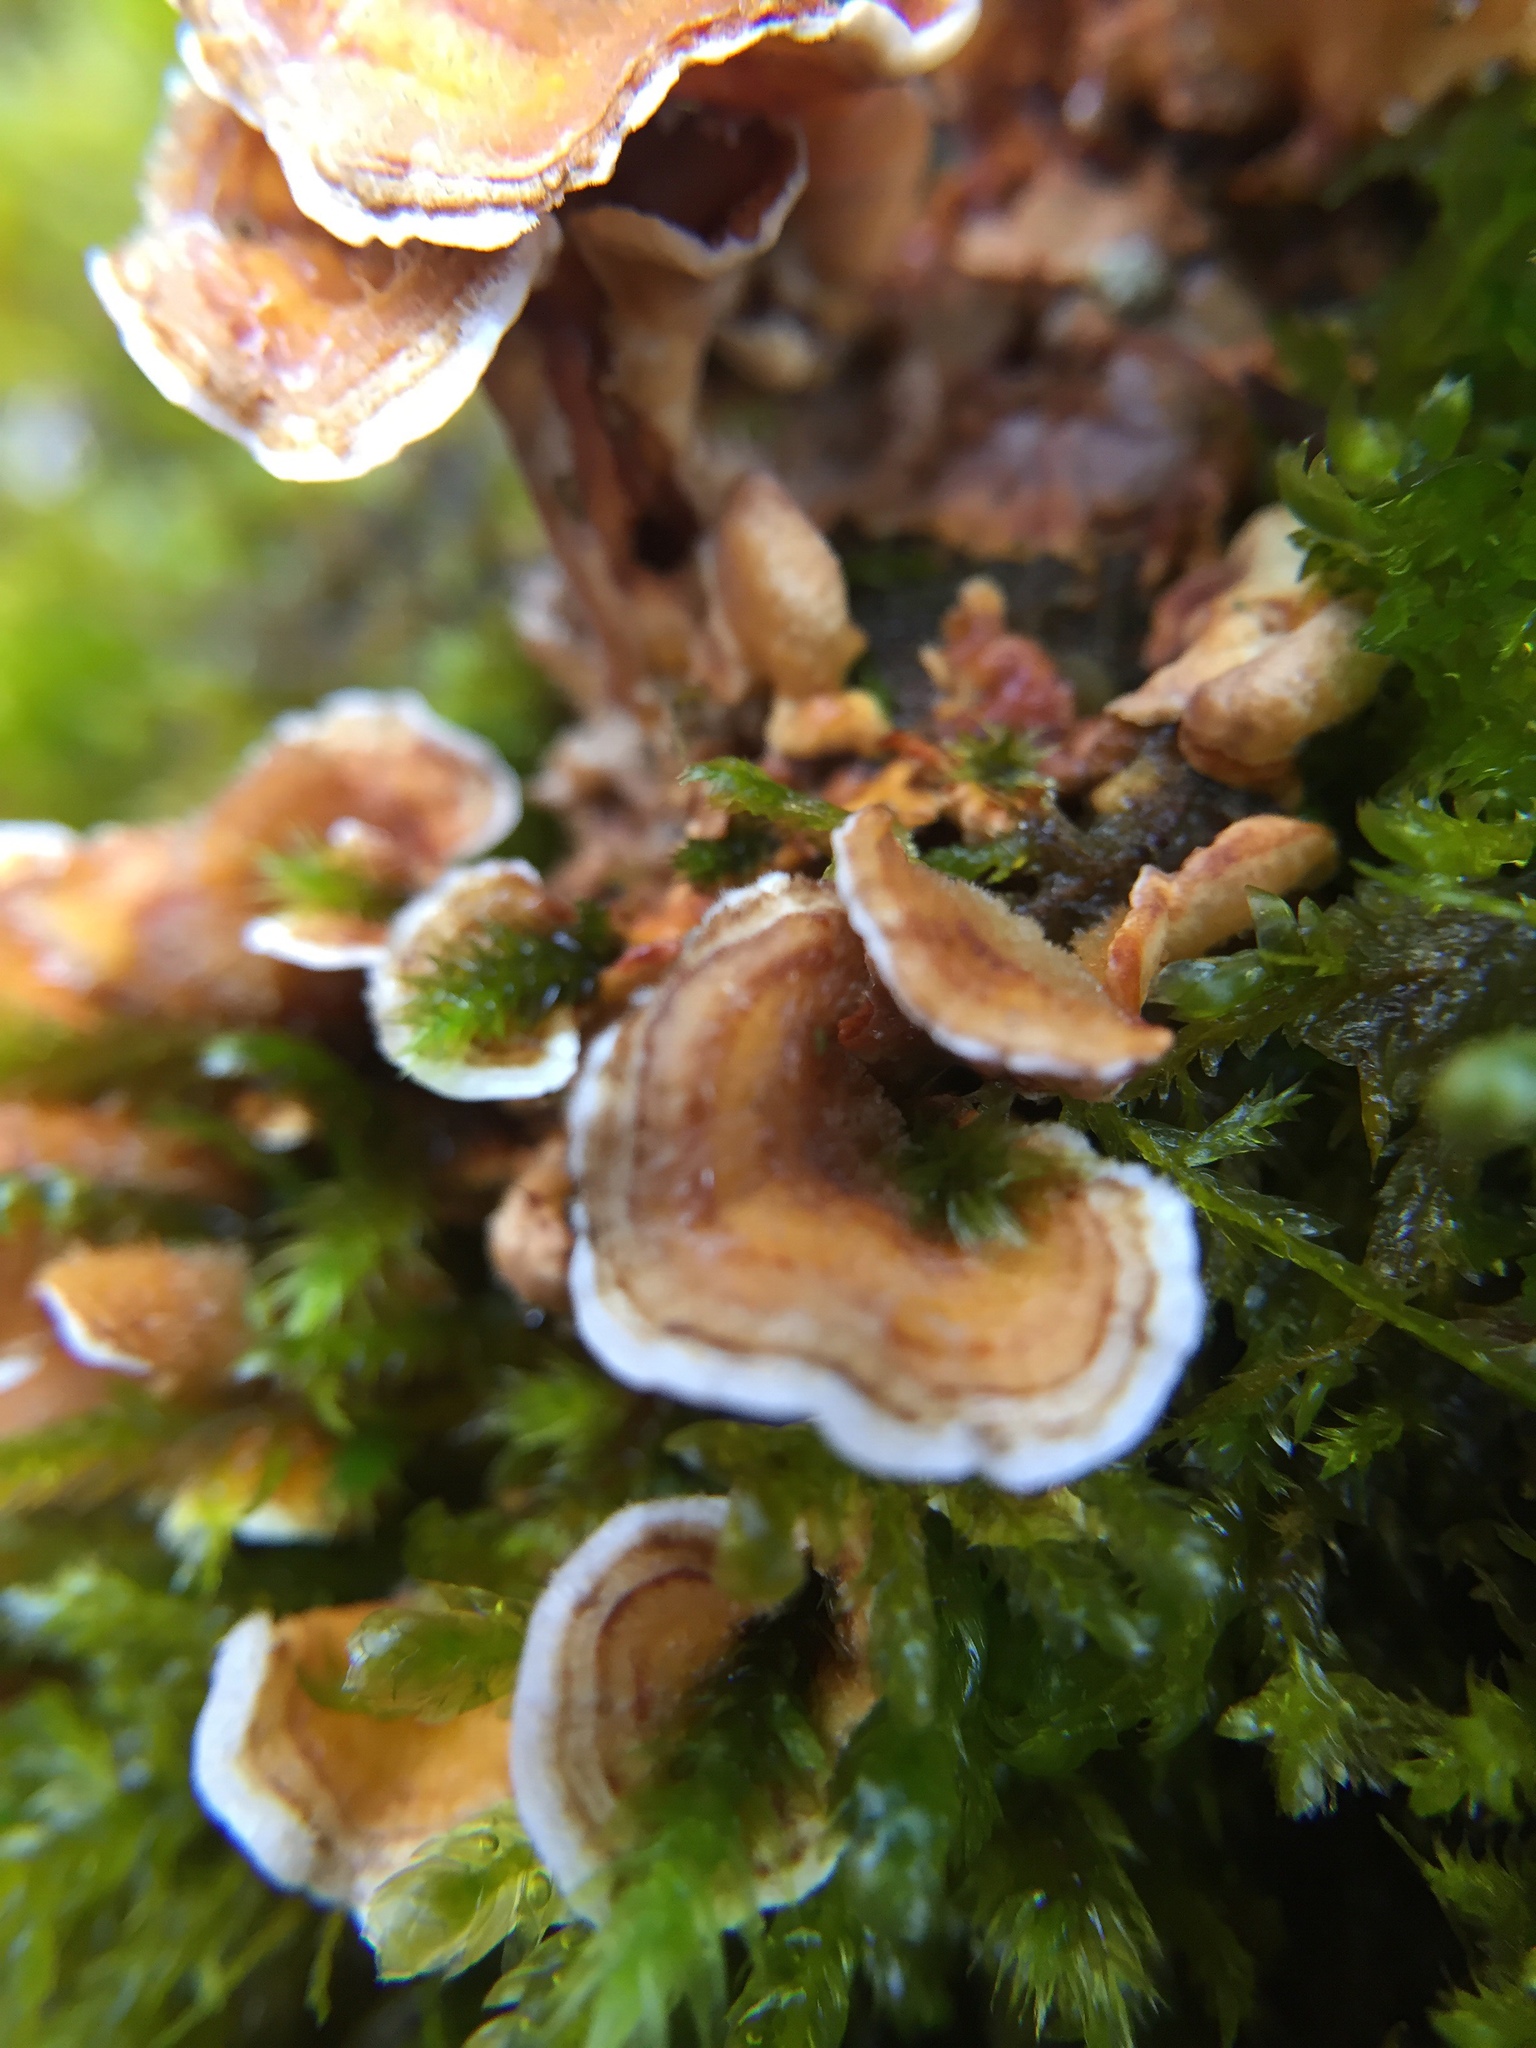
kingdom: Fungi
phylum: Basidiomycota
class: Agaricomycetes
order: Russulales
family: Stereaceae
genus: Stereum
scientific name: Stereum hirsutum
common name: Hairy curtain crust
